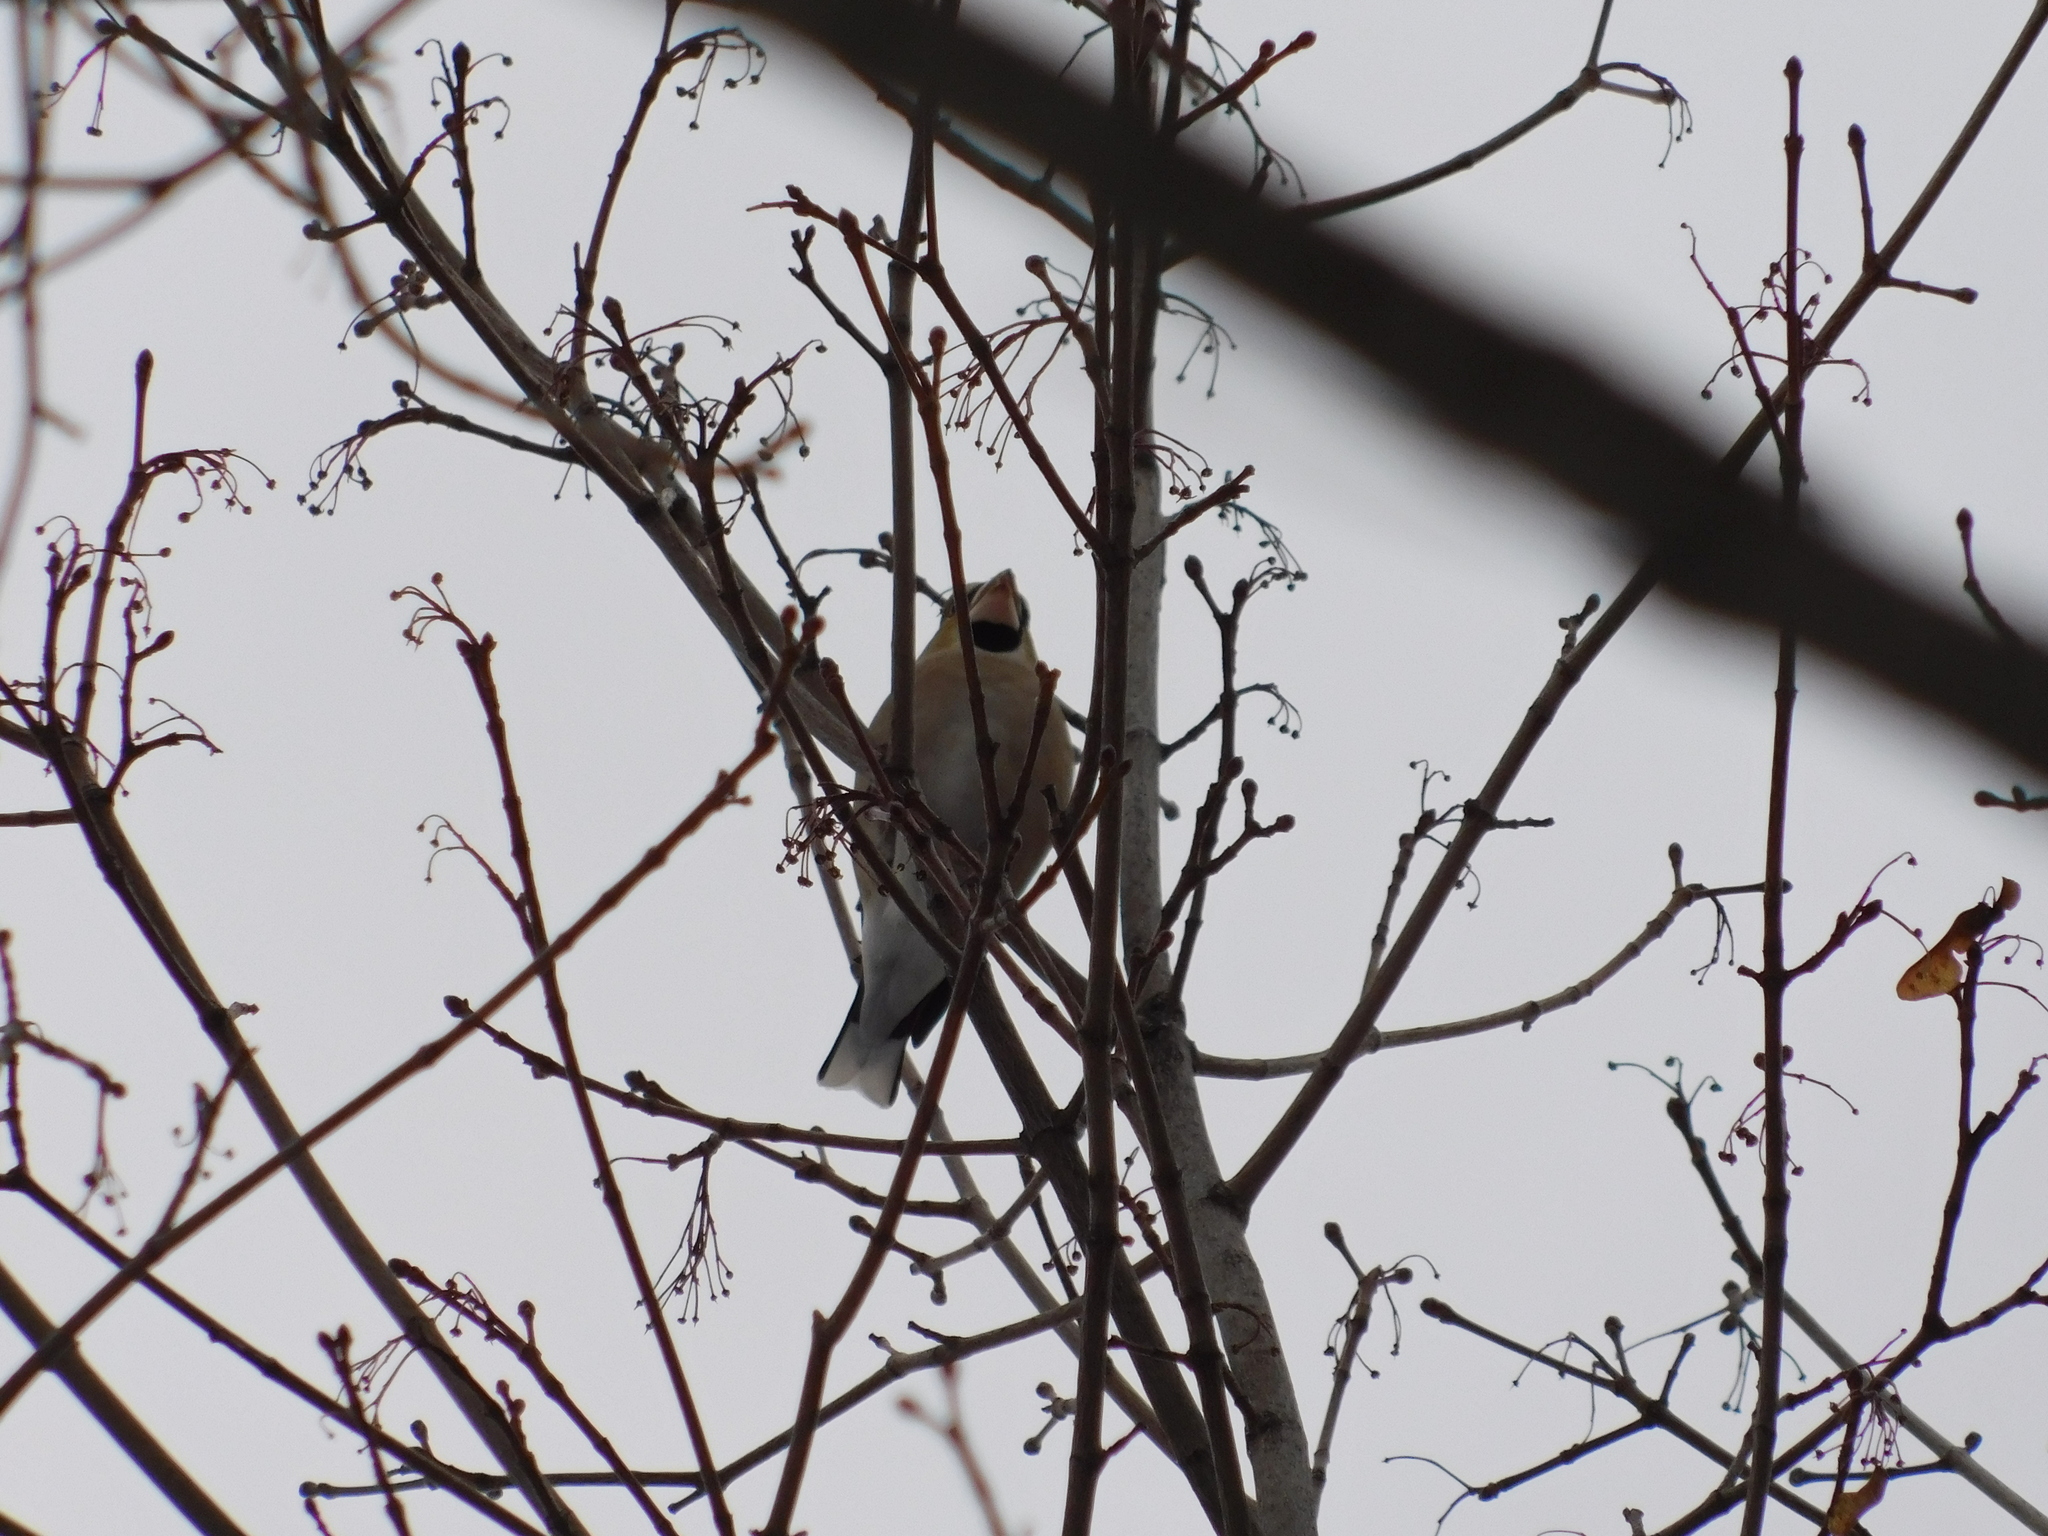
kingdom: Animalia
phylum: Chordata
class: Aves
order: Passeriformes
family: Fringillidae
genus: Coccothraustes
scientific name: Coccothraustes coccothraustes
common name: Hawfinch
